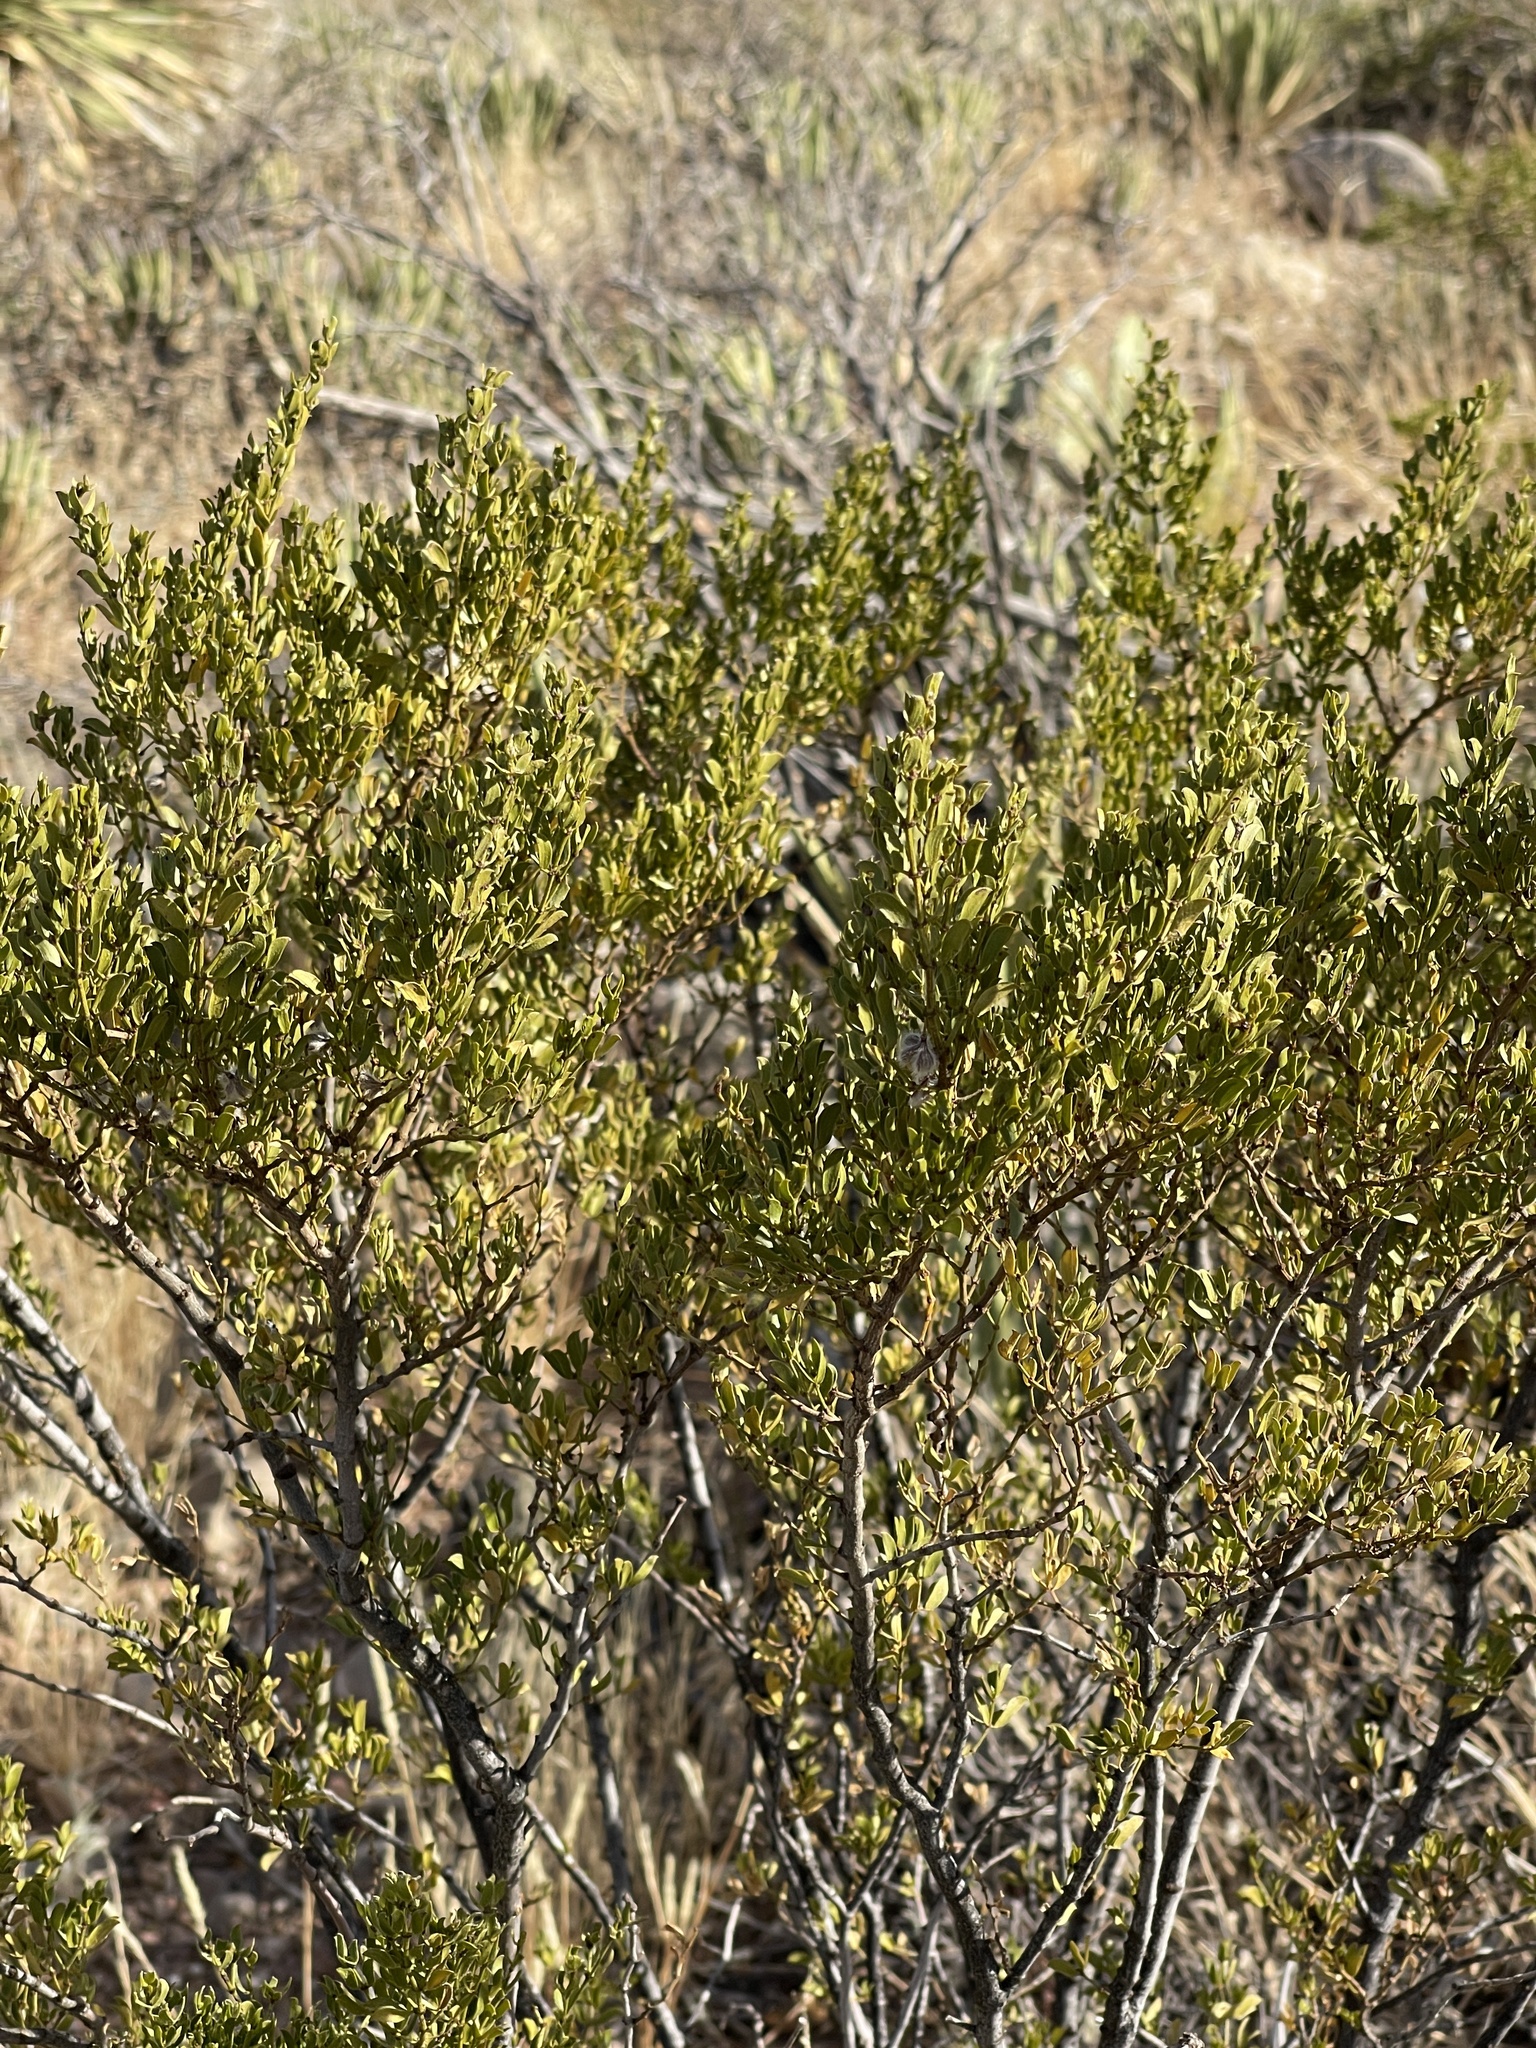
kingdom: Plantae
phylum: Tracheophyta
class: Magnoliopsida
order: Zygophyllales
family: Zygophyllaceae
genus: Larrea
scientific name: Larrea tridentata
